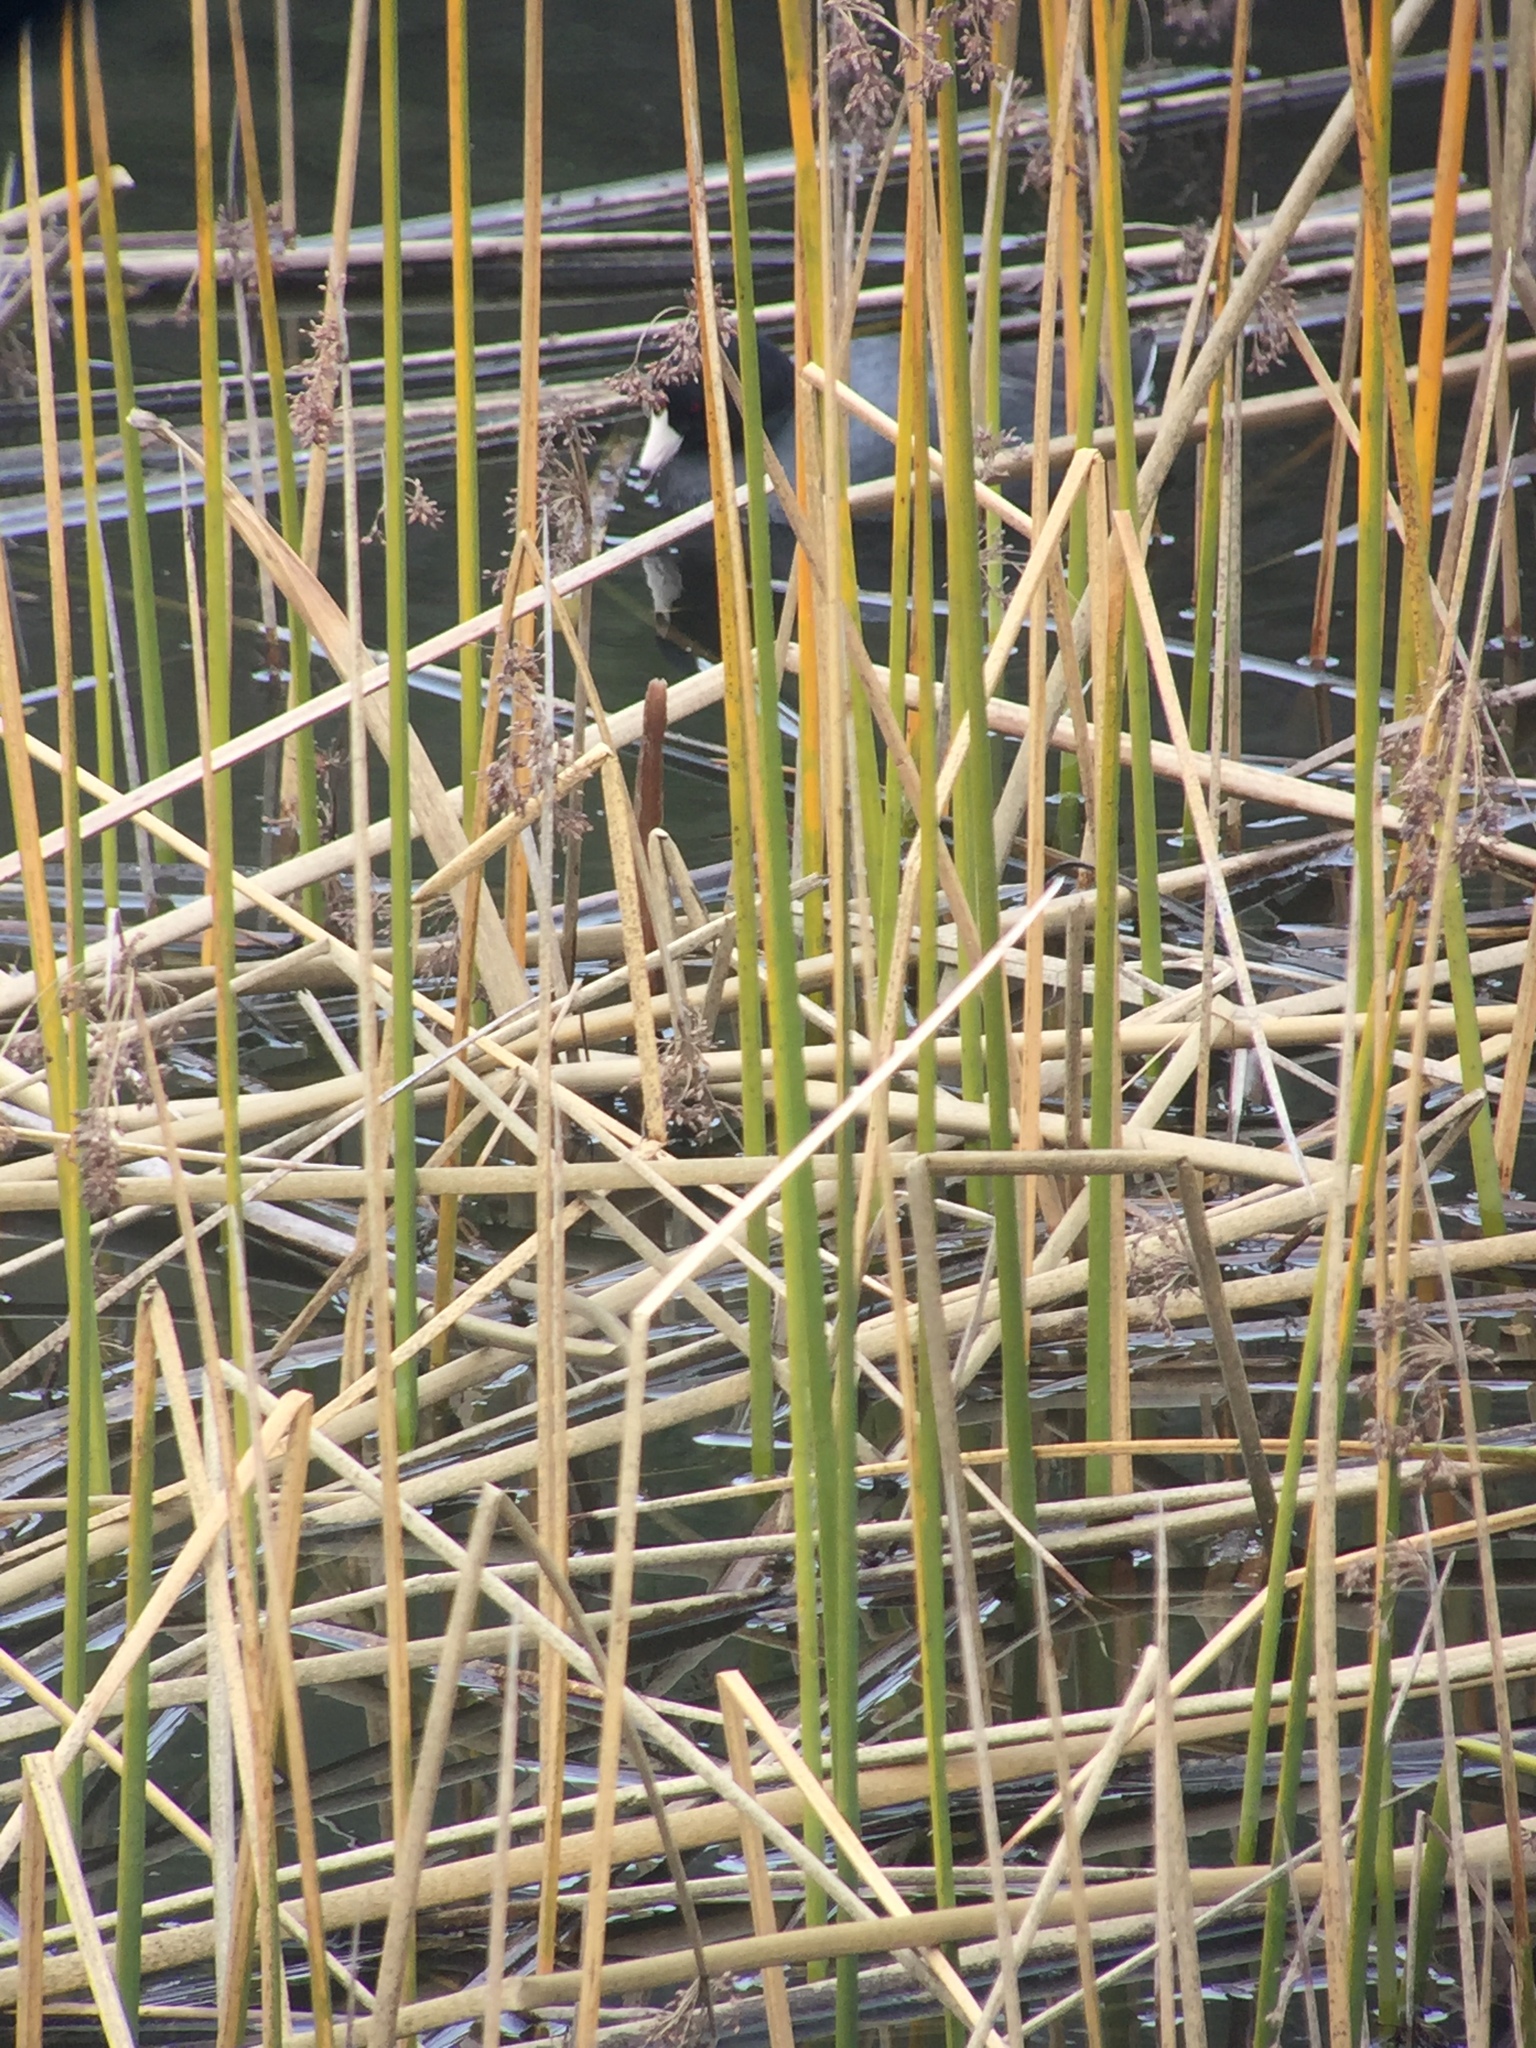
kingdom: Animalia
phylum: Chordata
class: Aves
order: Gruiformes
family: Rallidae
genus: Fulica
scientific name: Fulica americana
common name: American coot
